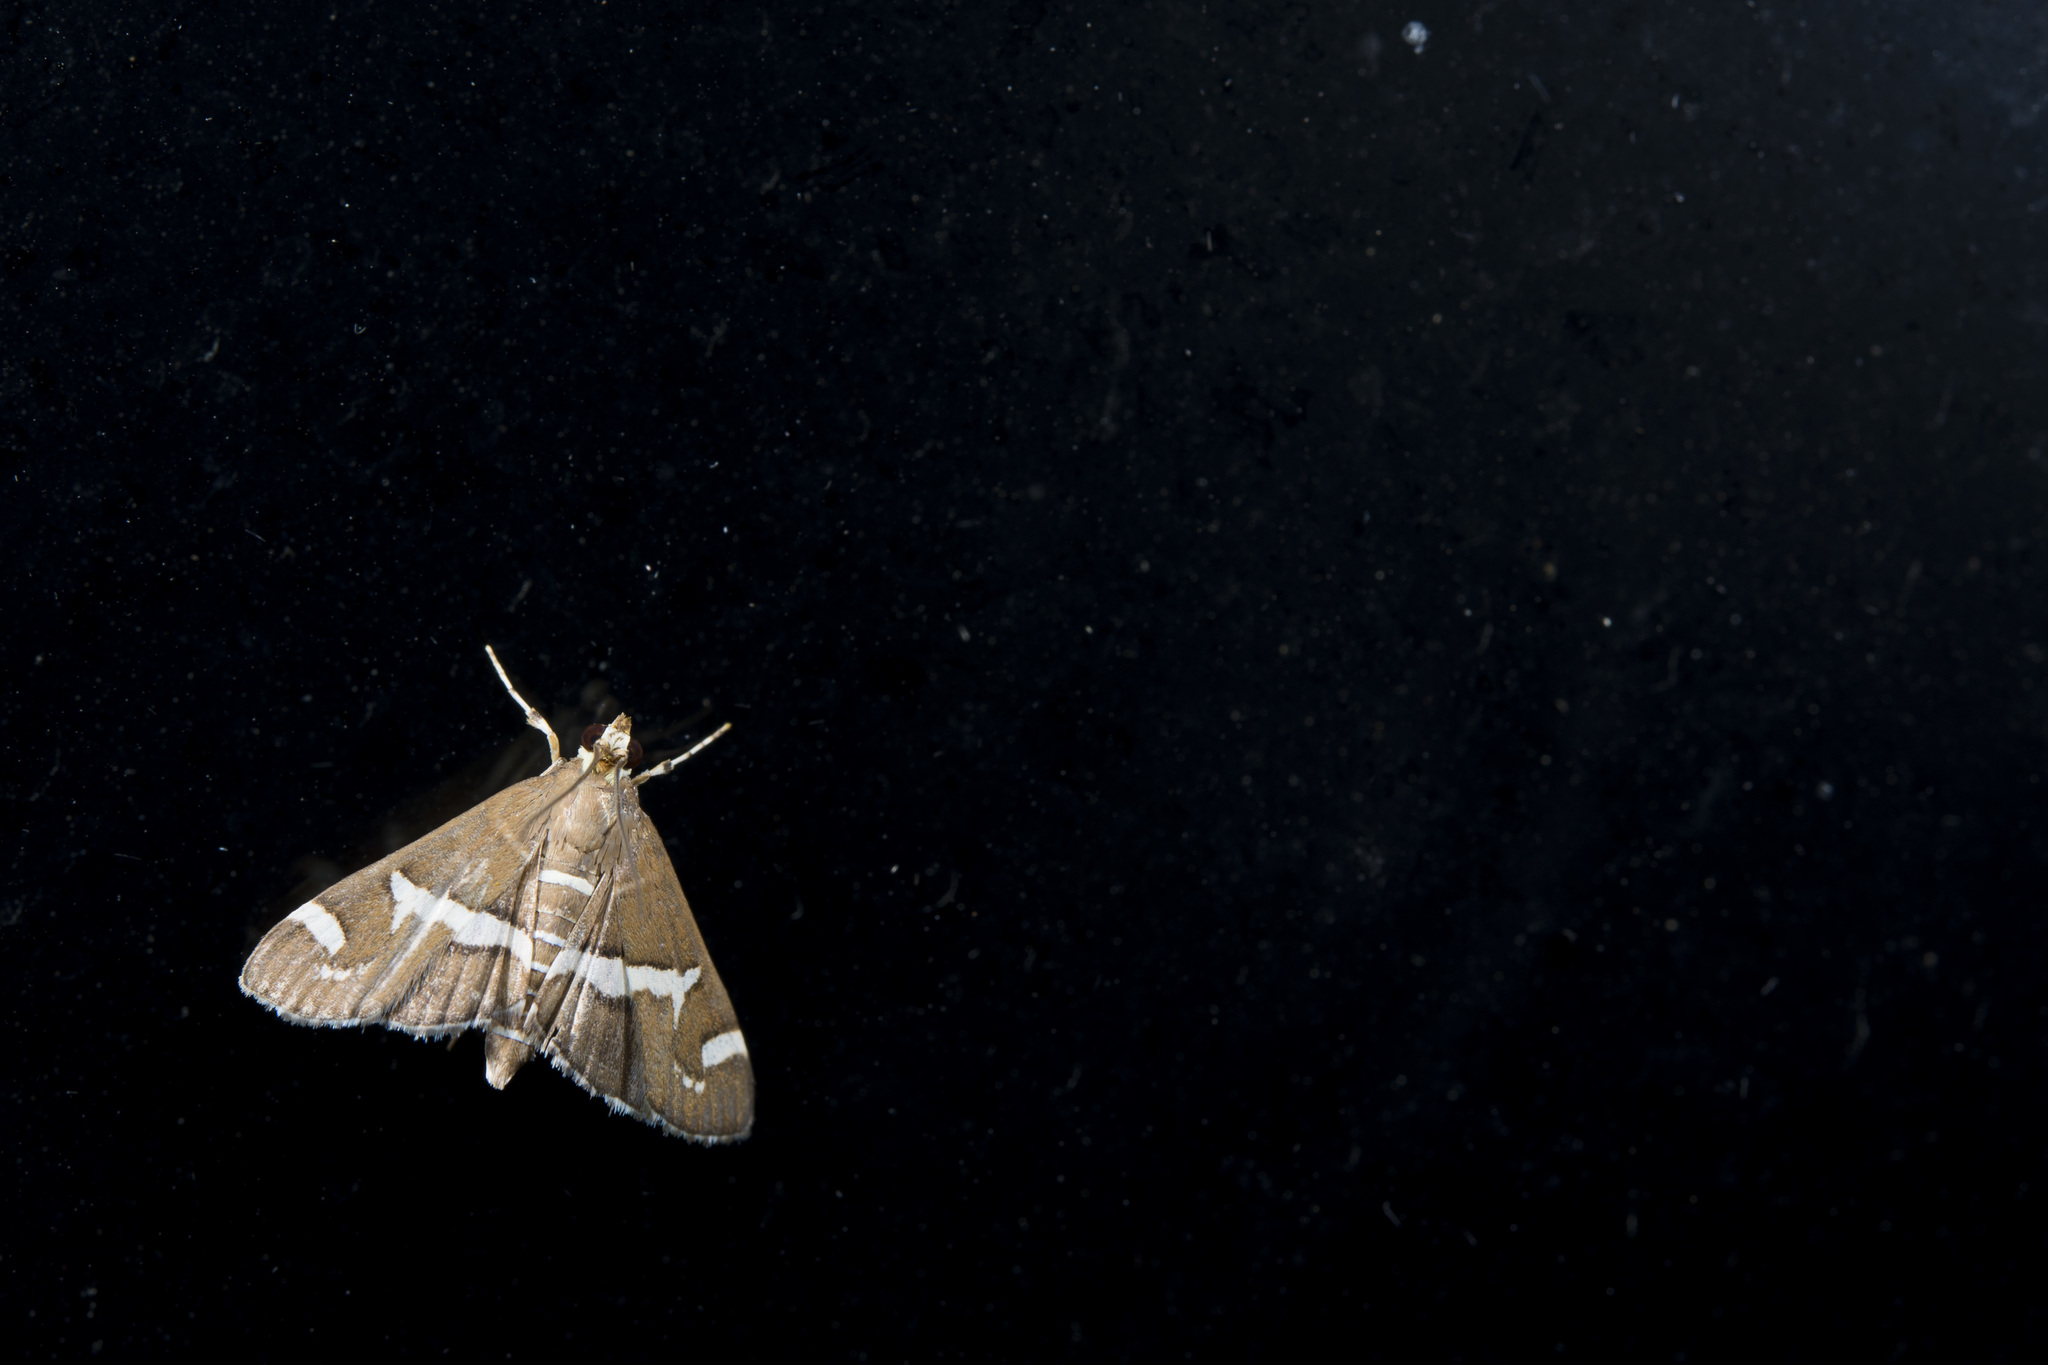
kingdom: Animalia
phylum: Arthropoda
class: Insecta
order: Lepidoptera
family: Crambidae
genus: Spoladea
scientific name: Spoladea recurvalis
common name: Beet webworm moth
